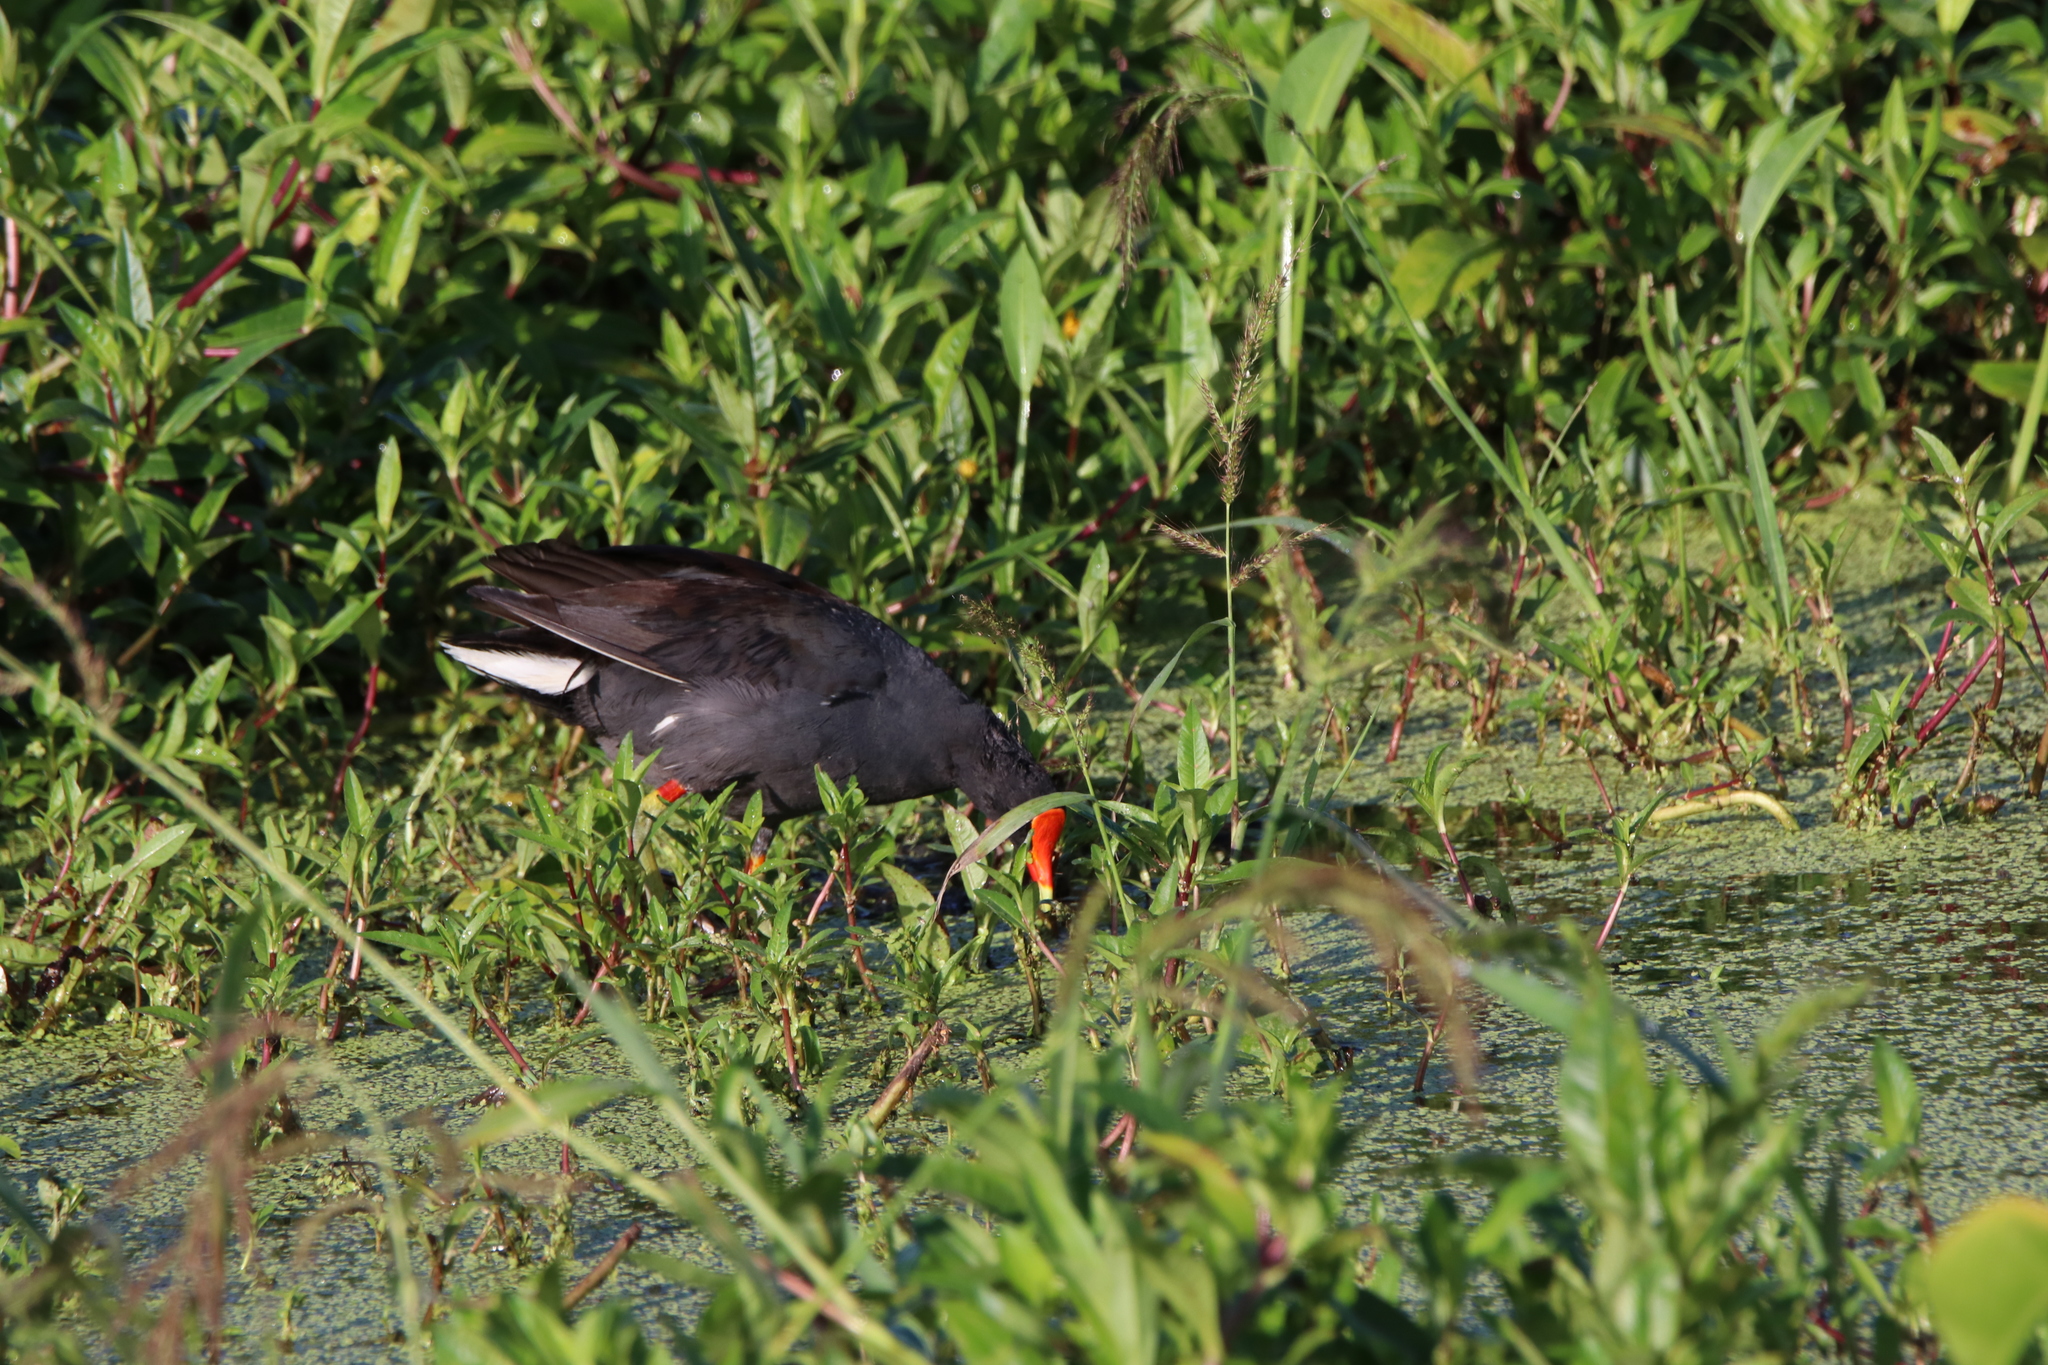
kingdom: Animalia
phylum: Chordata
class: Aves
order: Gruiformes
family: Rallidae
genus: Gallinula
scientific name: Gallinula chloropus
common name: Common moorhen
